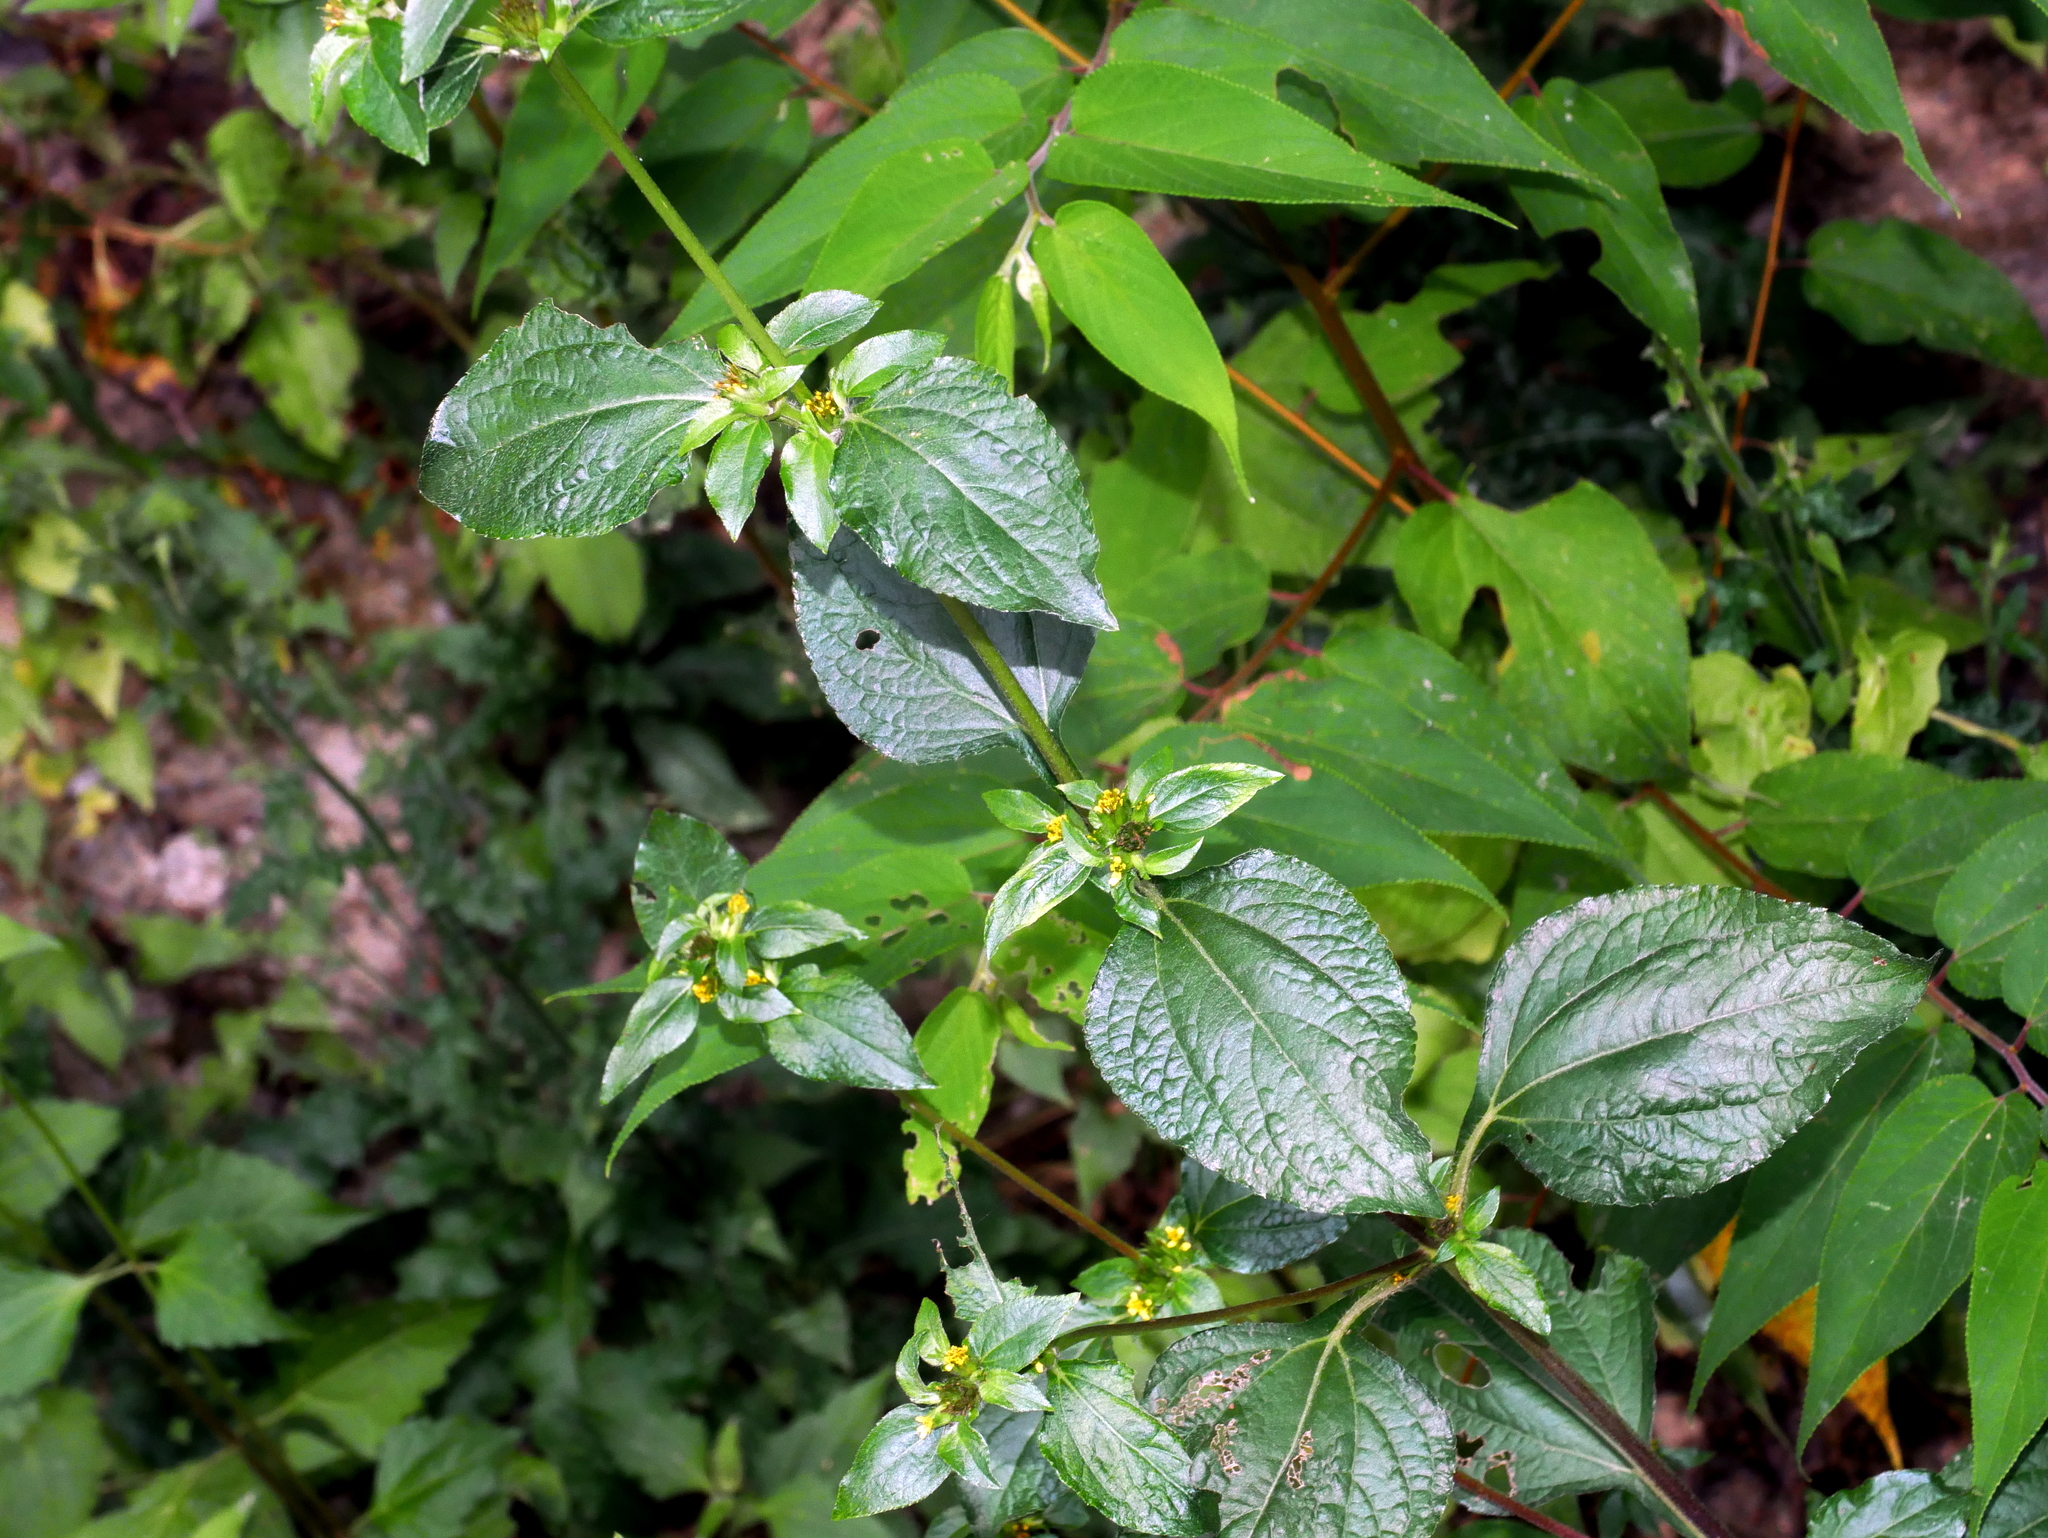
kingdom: Plantae
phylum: Tracheophyta
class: Magnoliopsida
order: Asterales
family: Asteraceae
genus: Synedrella
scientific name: Synedrella nodiflora
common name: Nodeweed
